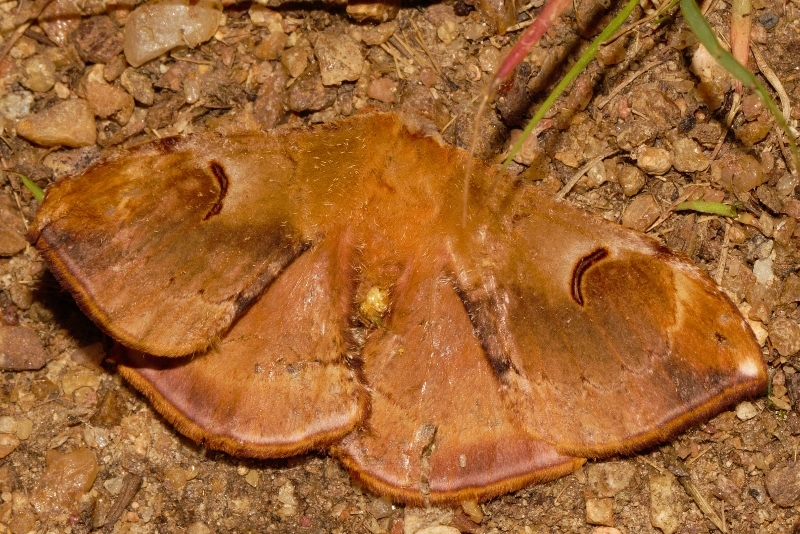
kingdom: Animalia
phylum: Arthropoda
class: Insecta
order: Lepidoptera
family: Saturniidae
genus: Goodia
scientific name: Goodia
